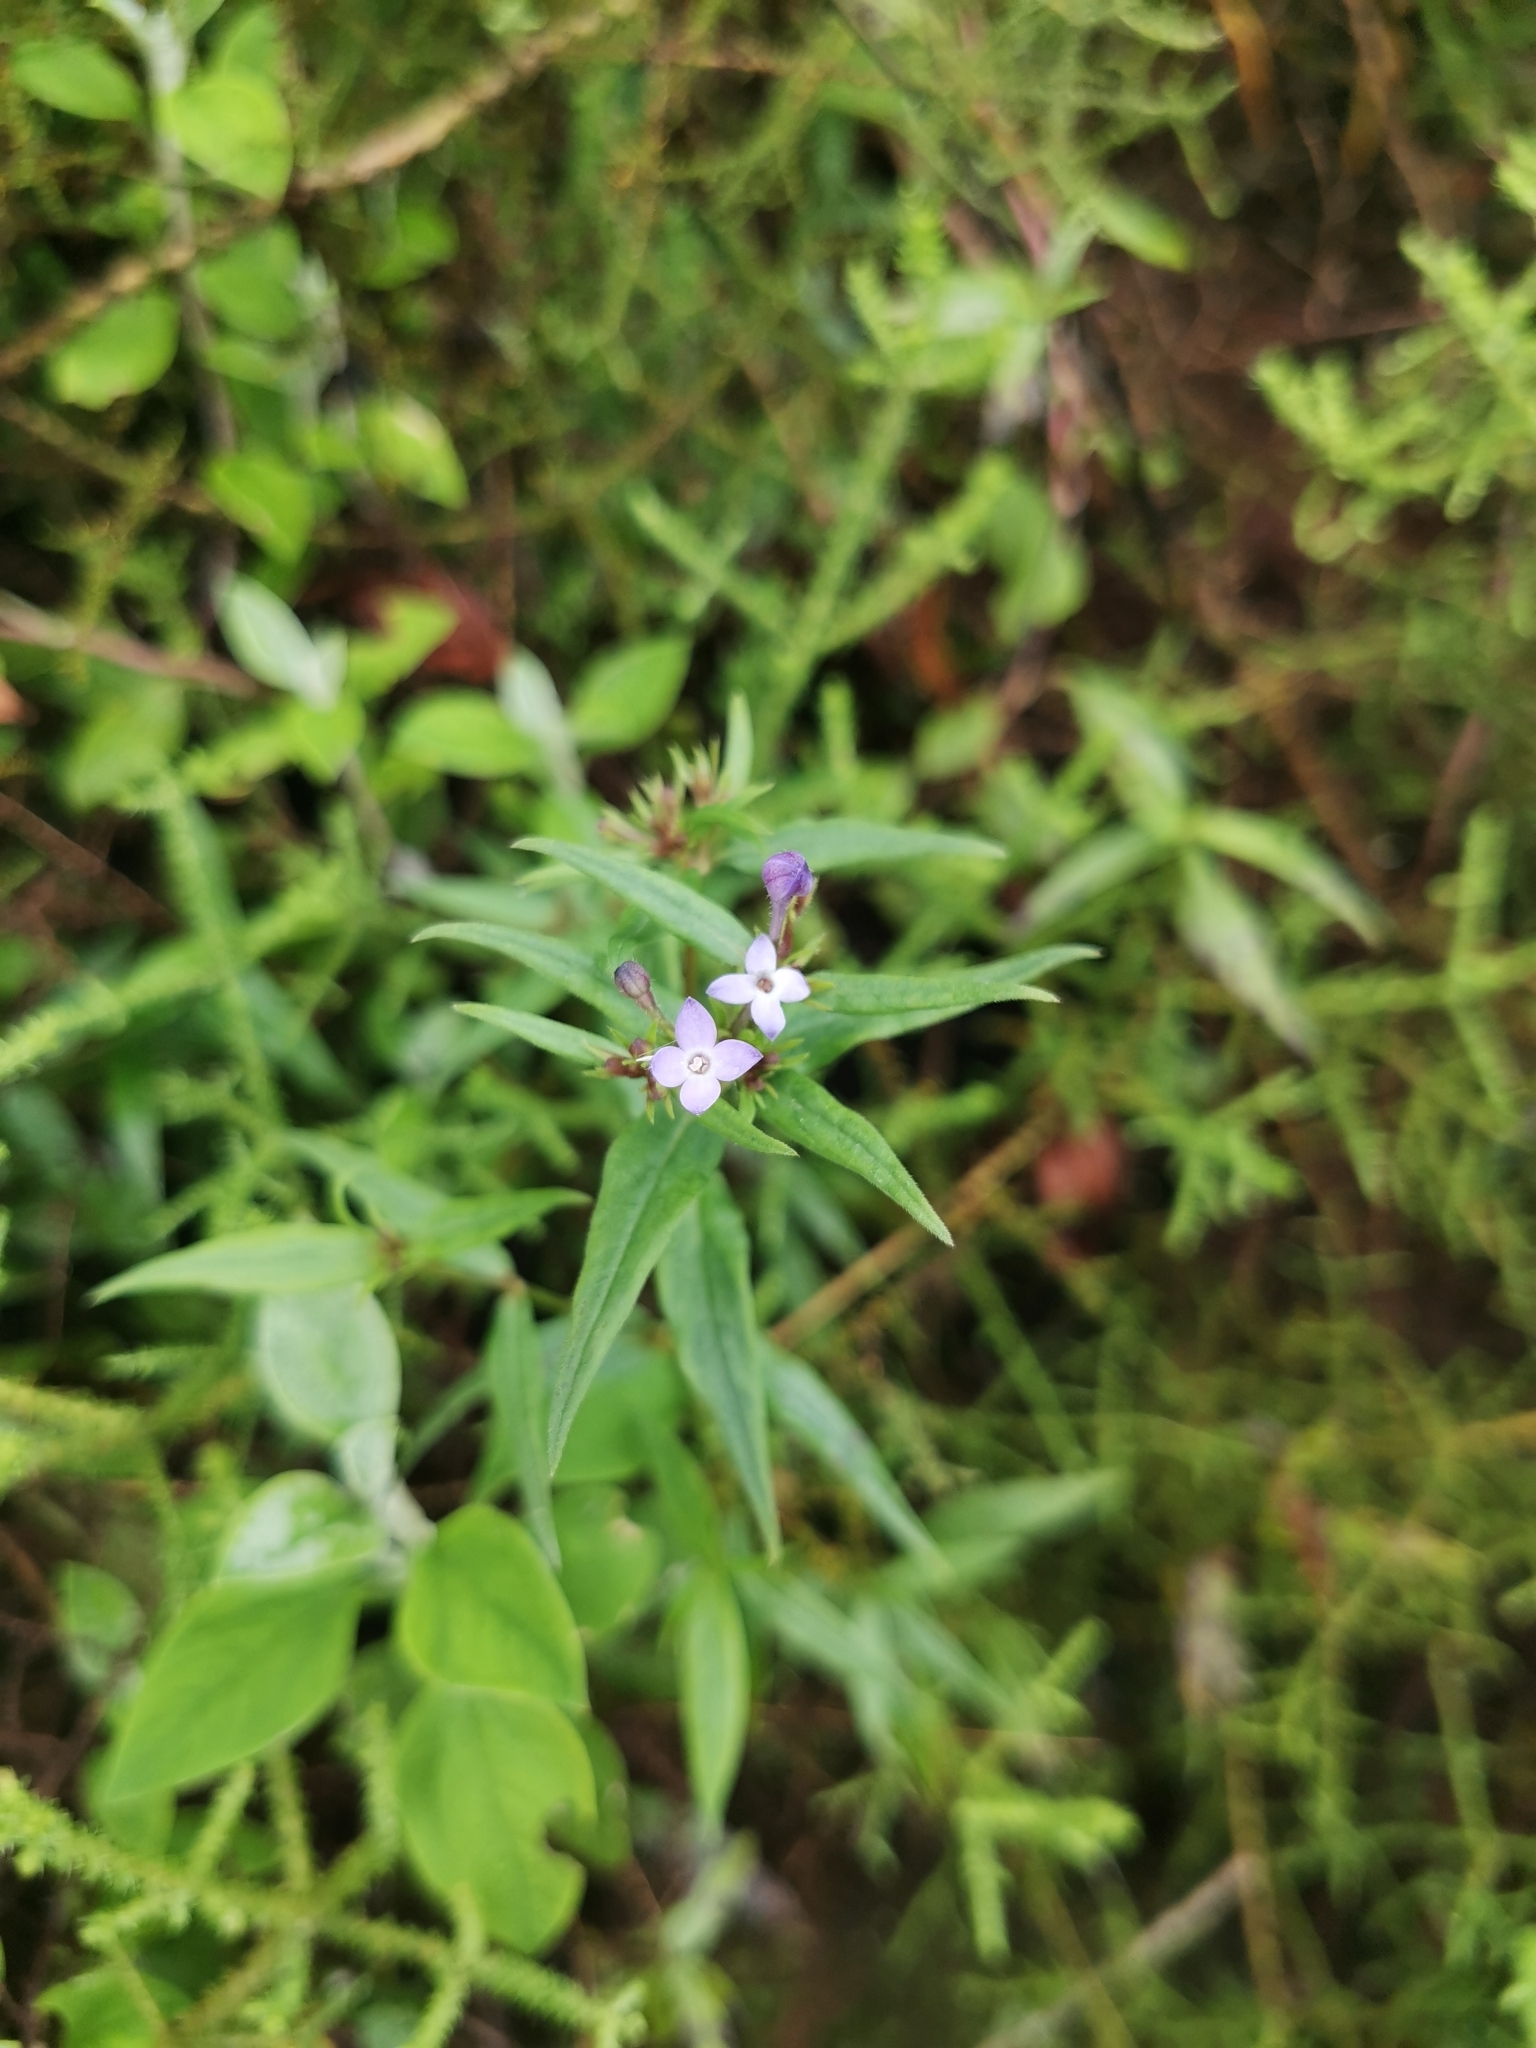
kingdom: Plantae
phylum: Tracheophyta
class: Magnoliopsida
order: Gentianales
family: Rubiaceae
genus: Conostomium
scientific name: Conostomium natalense
